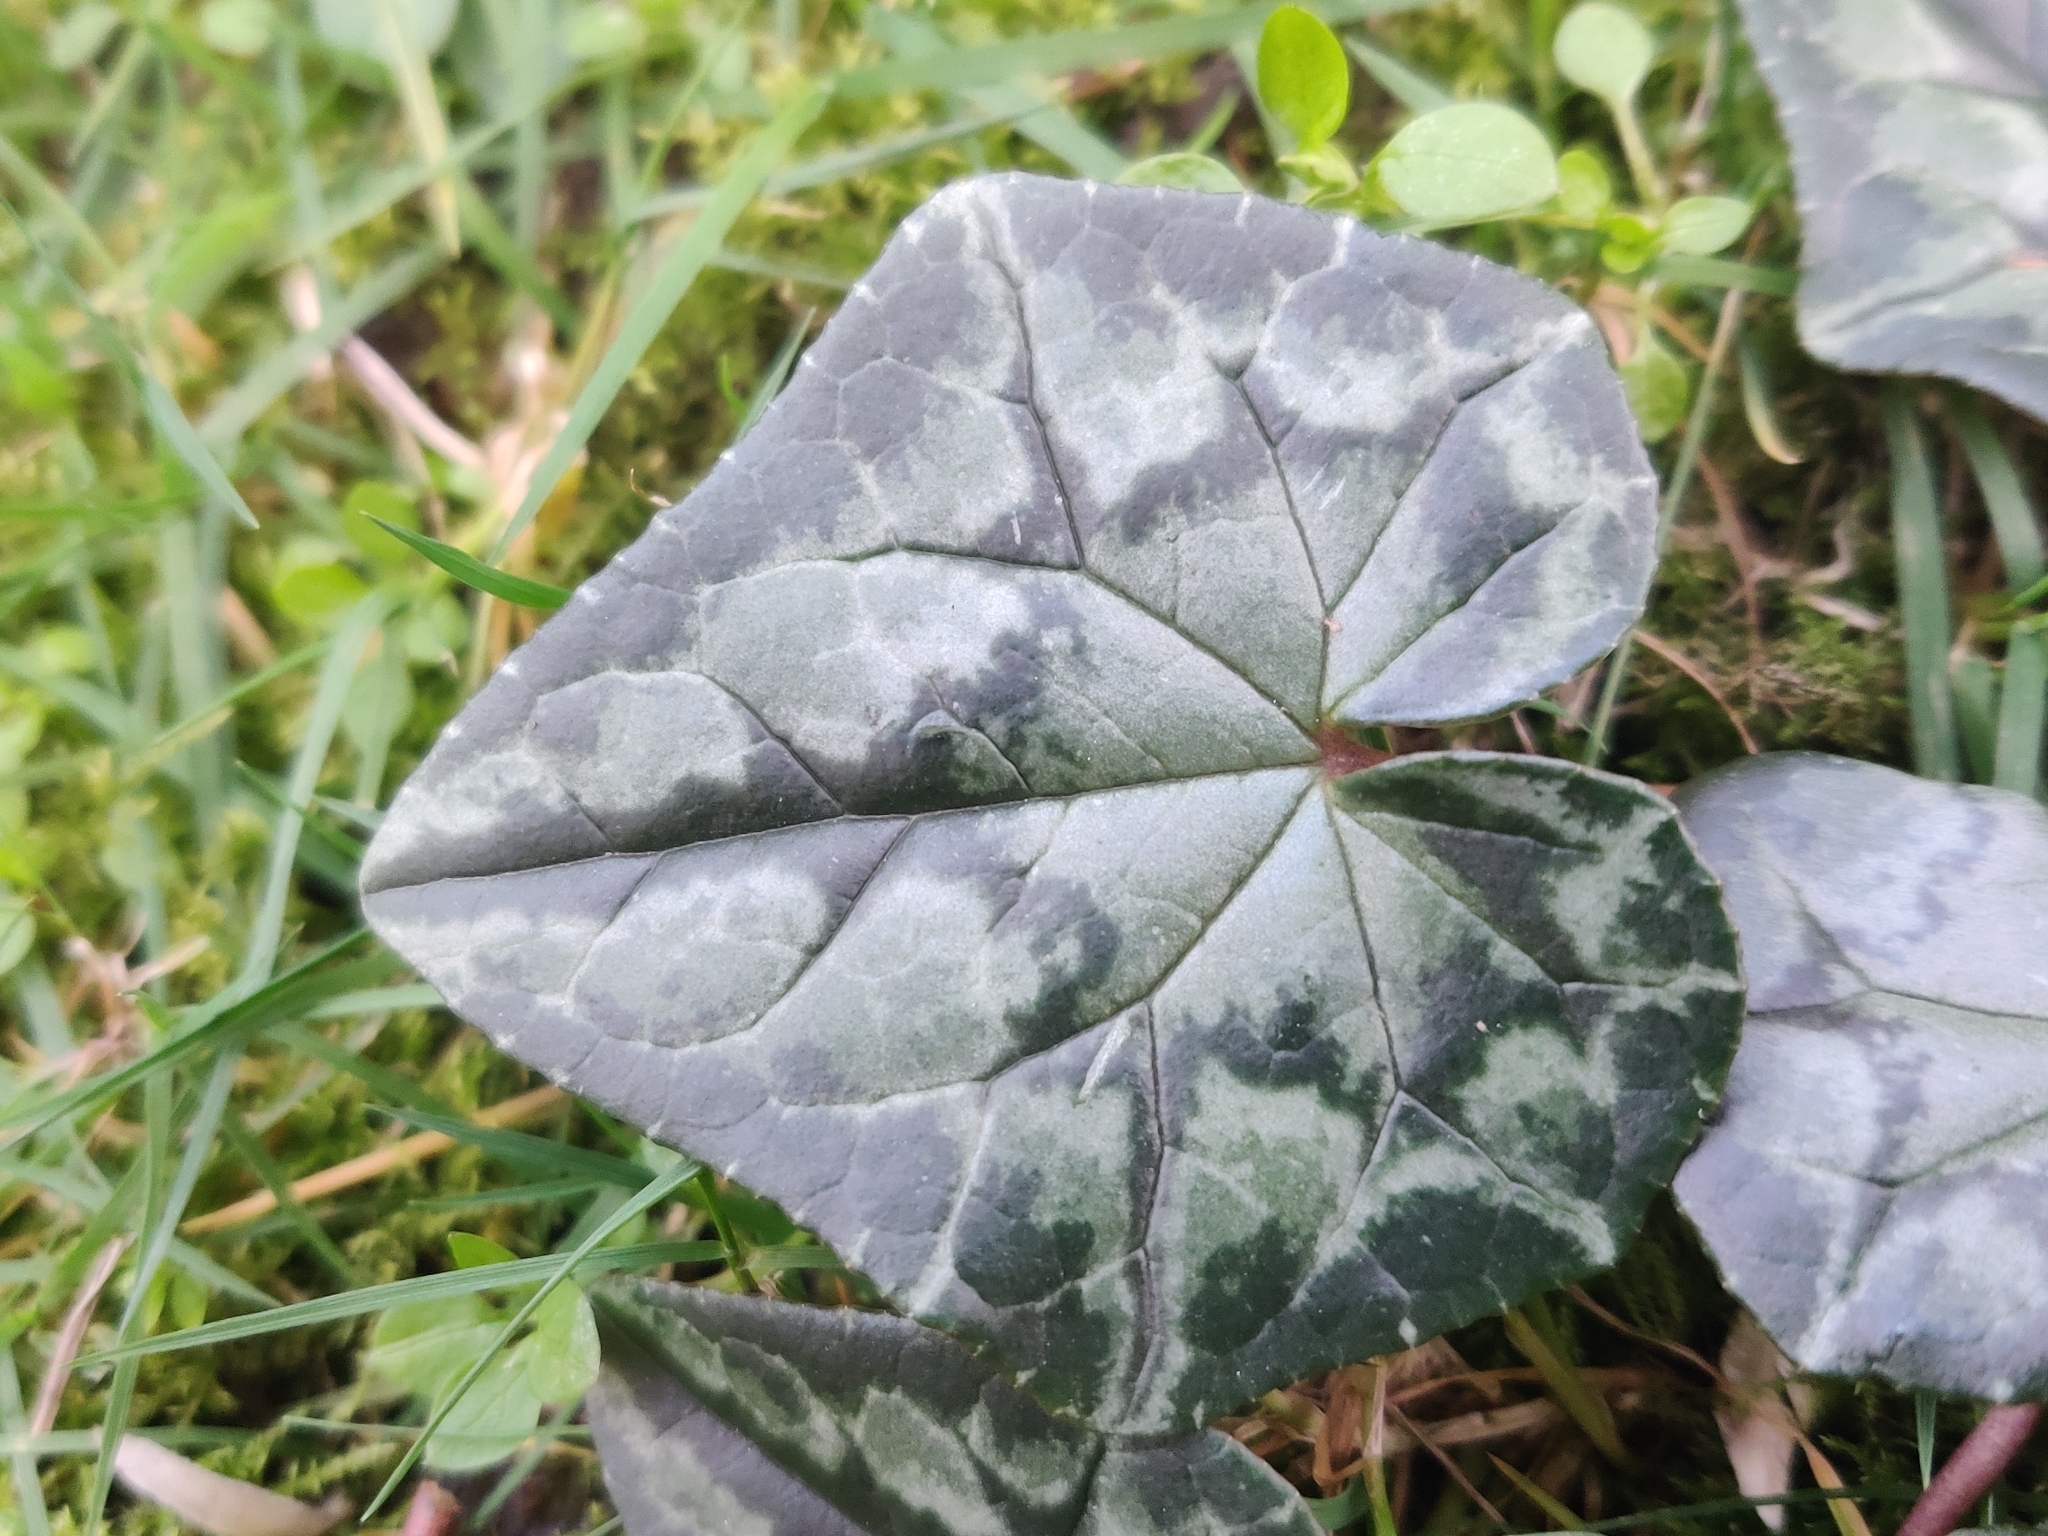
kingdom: Plantae
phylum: Tracheophyta
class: Magnoliopsida
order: Ericales
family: Primulaceae
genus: Cyclamen
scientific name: Cyclamen hederifolium
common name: Sowbread
